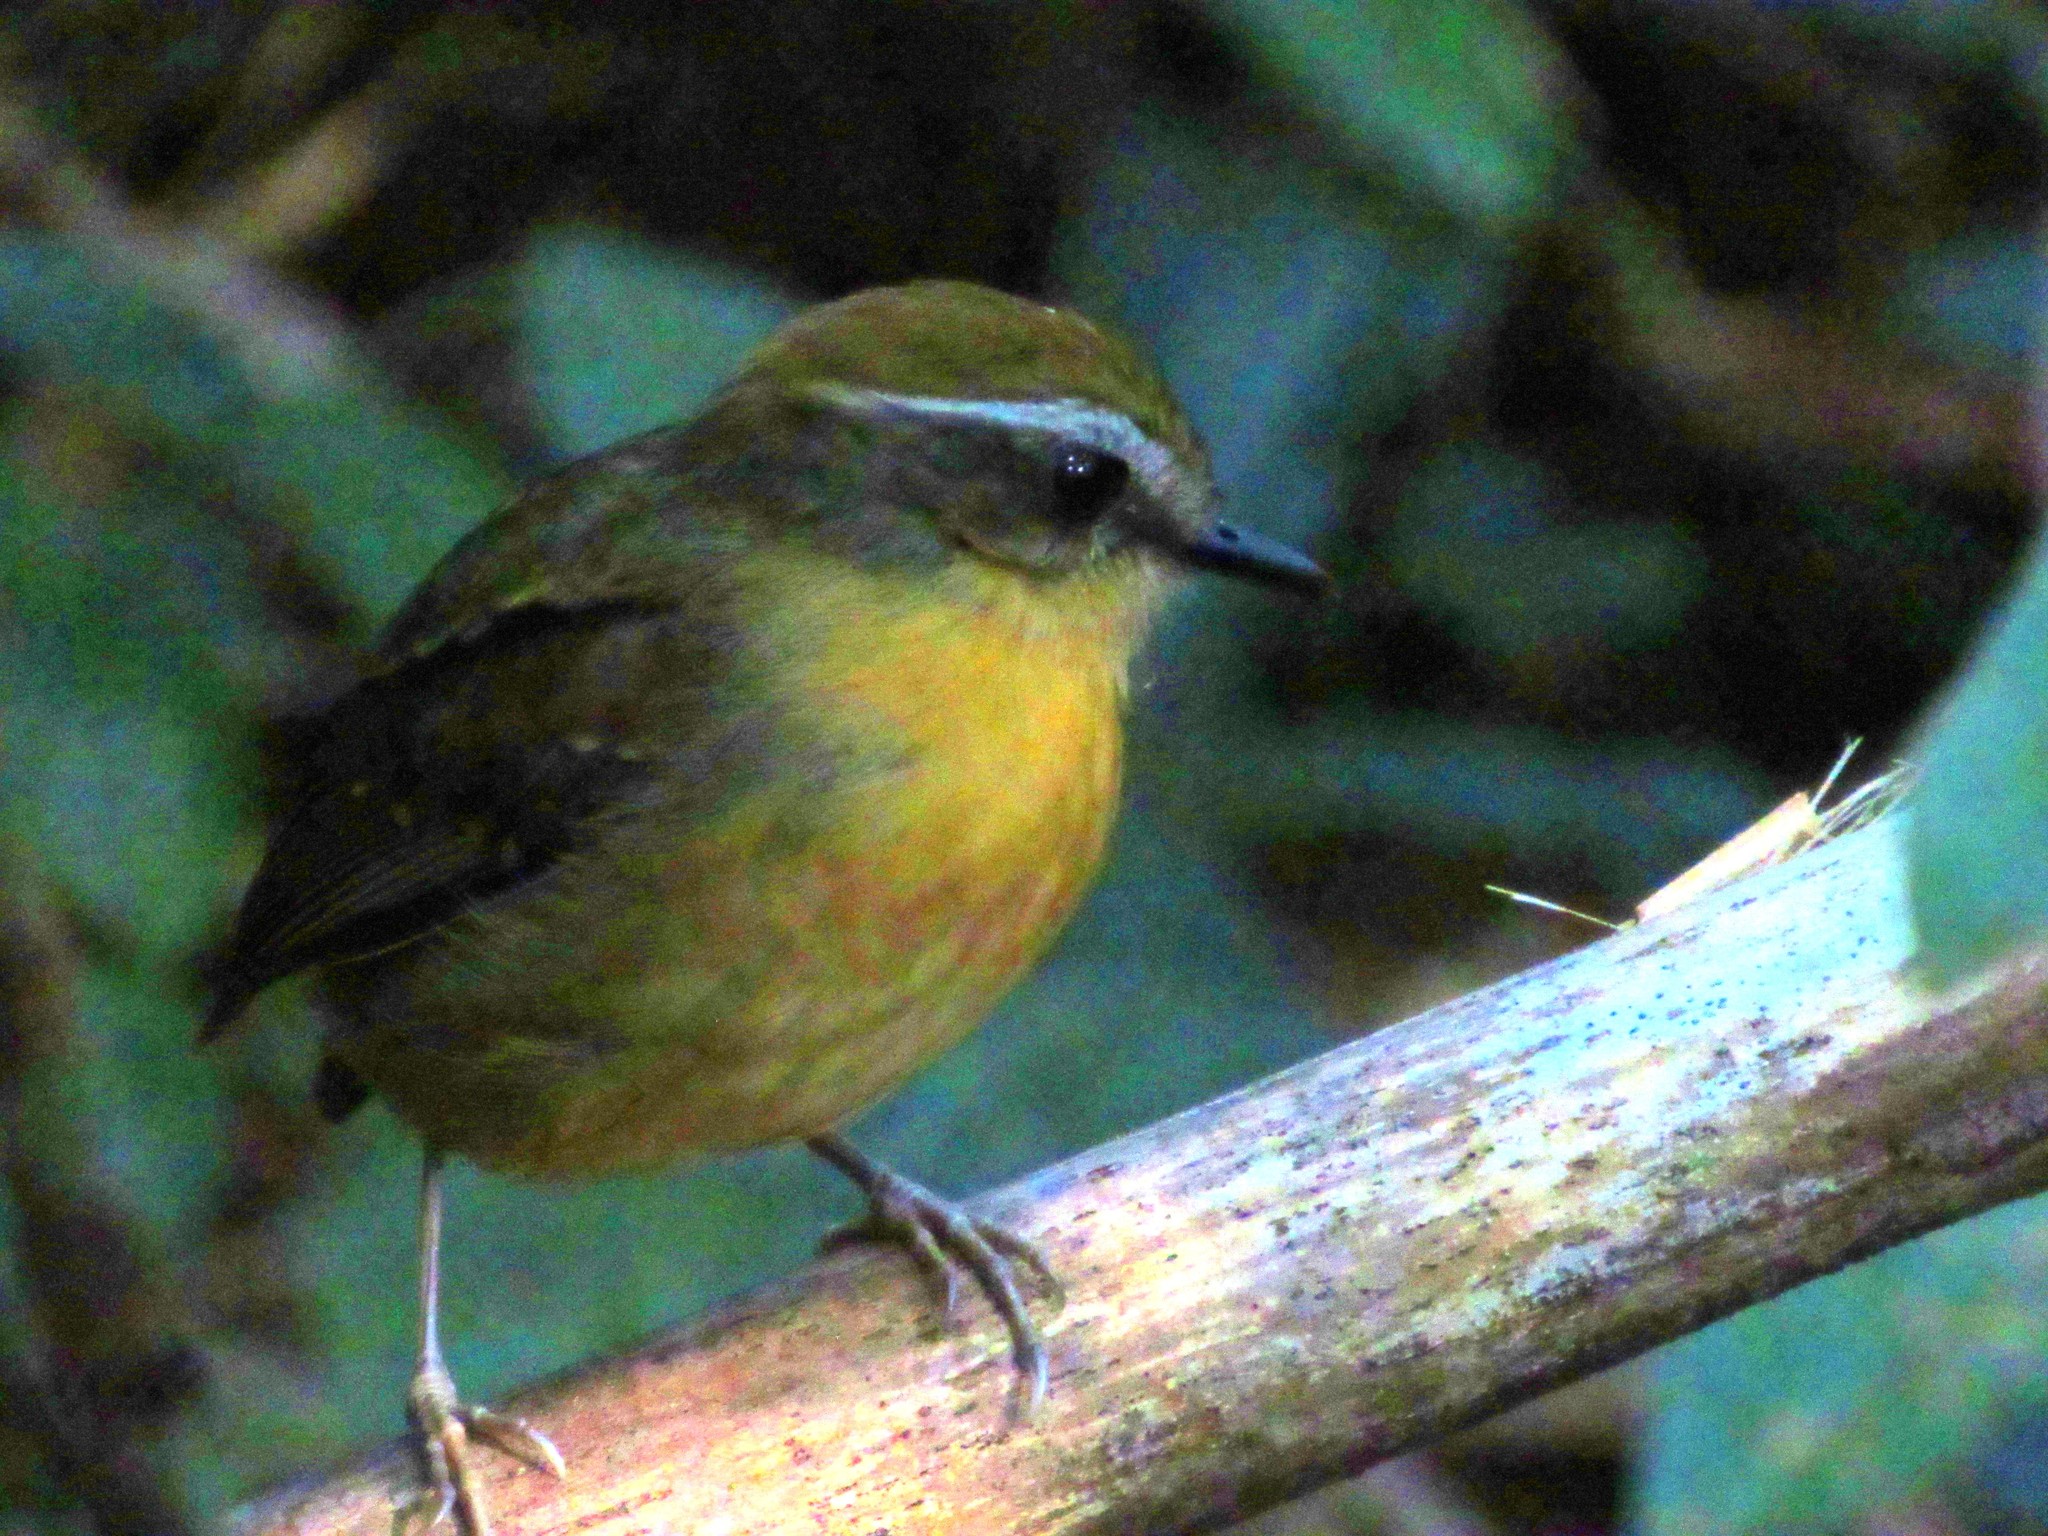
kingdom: Animalia
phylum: Chordata
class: Aves
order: Passeriformes
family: Conopophagidae
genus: Conopophaga
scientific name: Conopophaga melanops
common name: Black-cheeked gnateater
